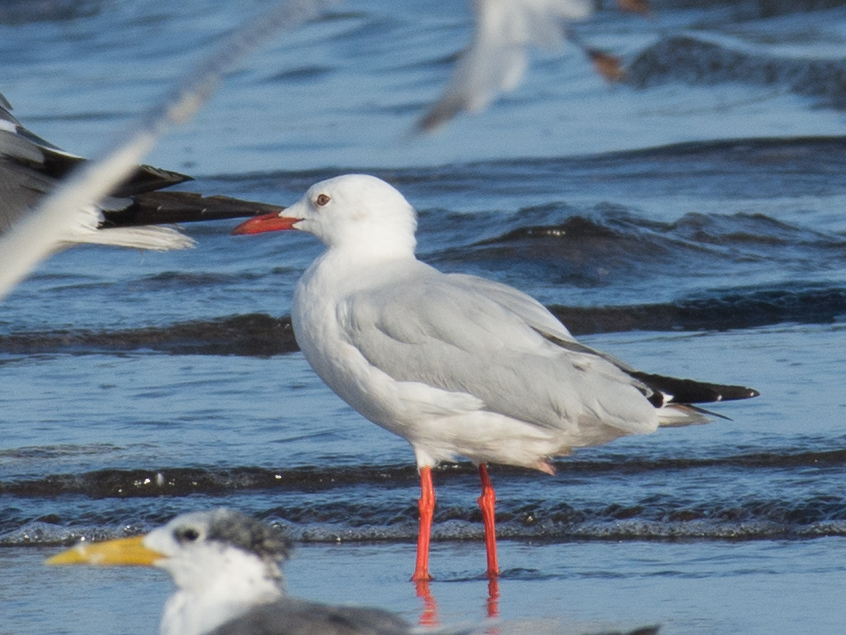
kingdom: Animalia
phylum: Chordata
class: Aves
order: Charadriiformes
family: Laridae
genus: Chroicocephalus
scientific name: Chroicocephalus genei
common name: Slender-billed gull
